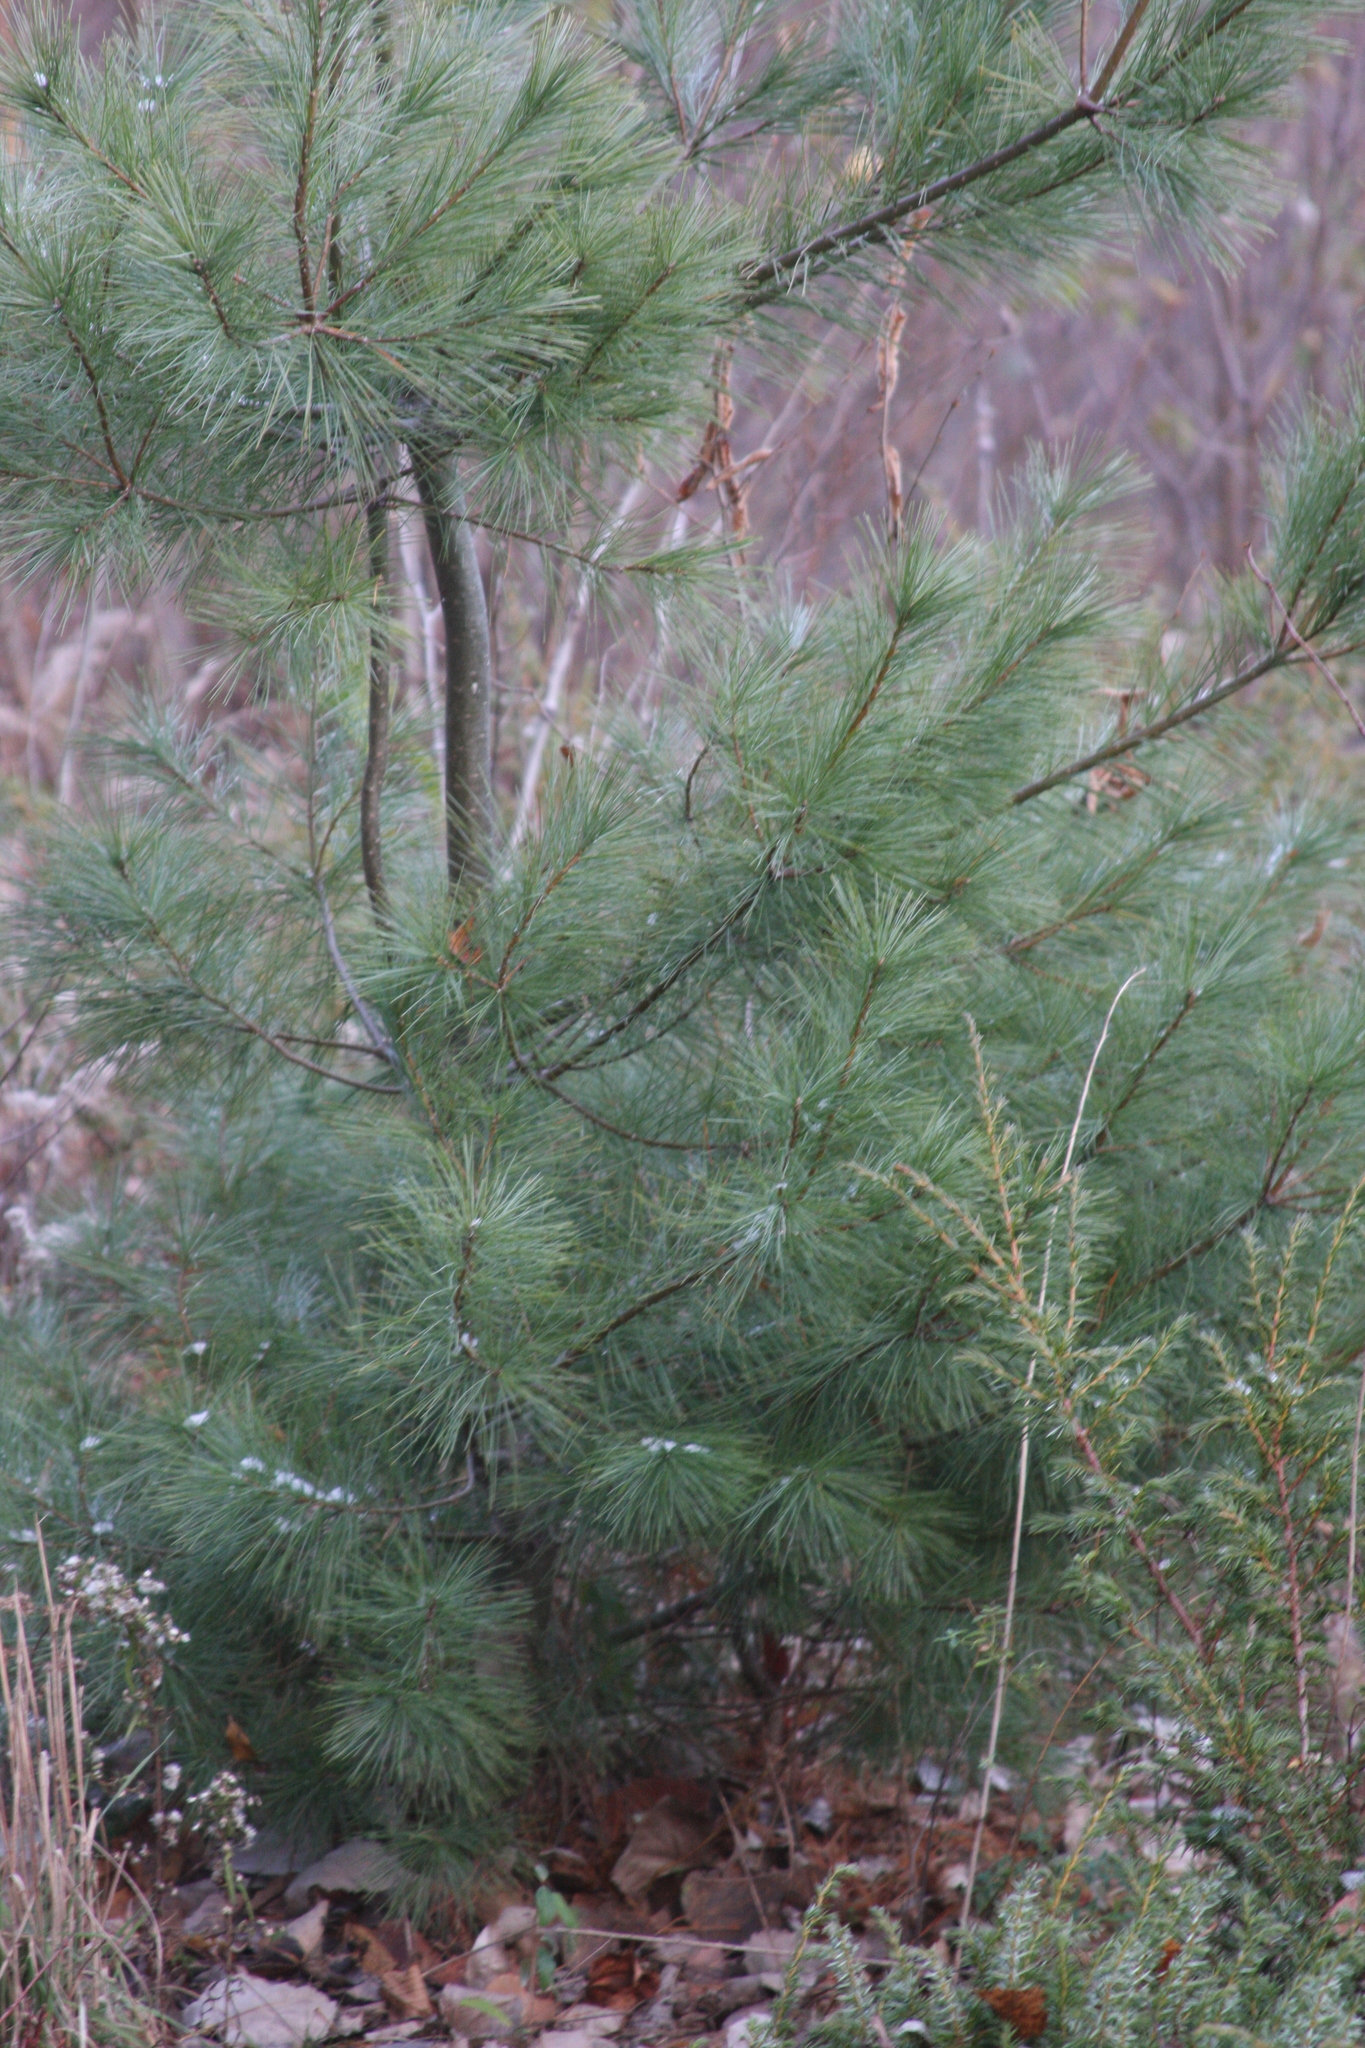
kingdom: Plantae
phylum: Tracheophyta
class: Pinopsida
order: Pinales
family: Pinaceae
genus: Pinus
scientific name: Pinus strobus
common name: Weymouth pine
